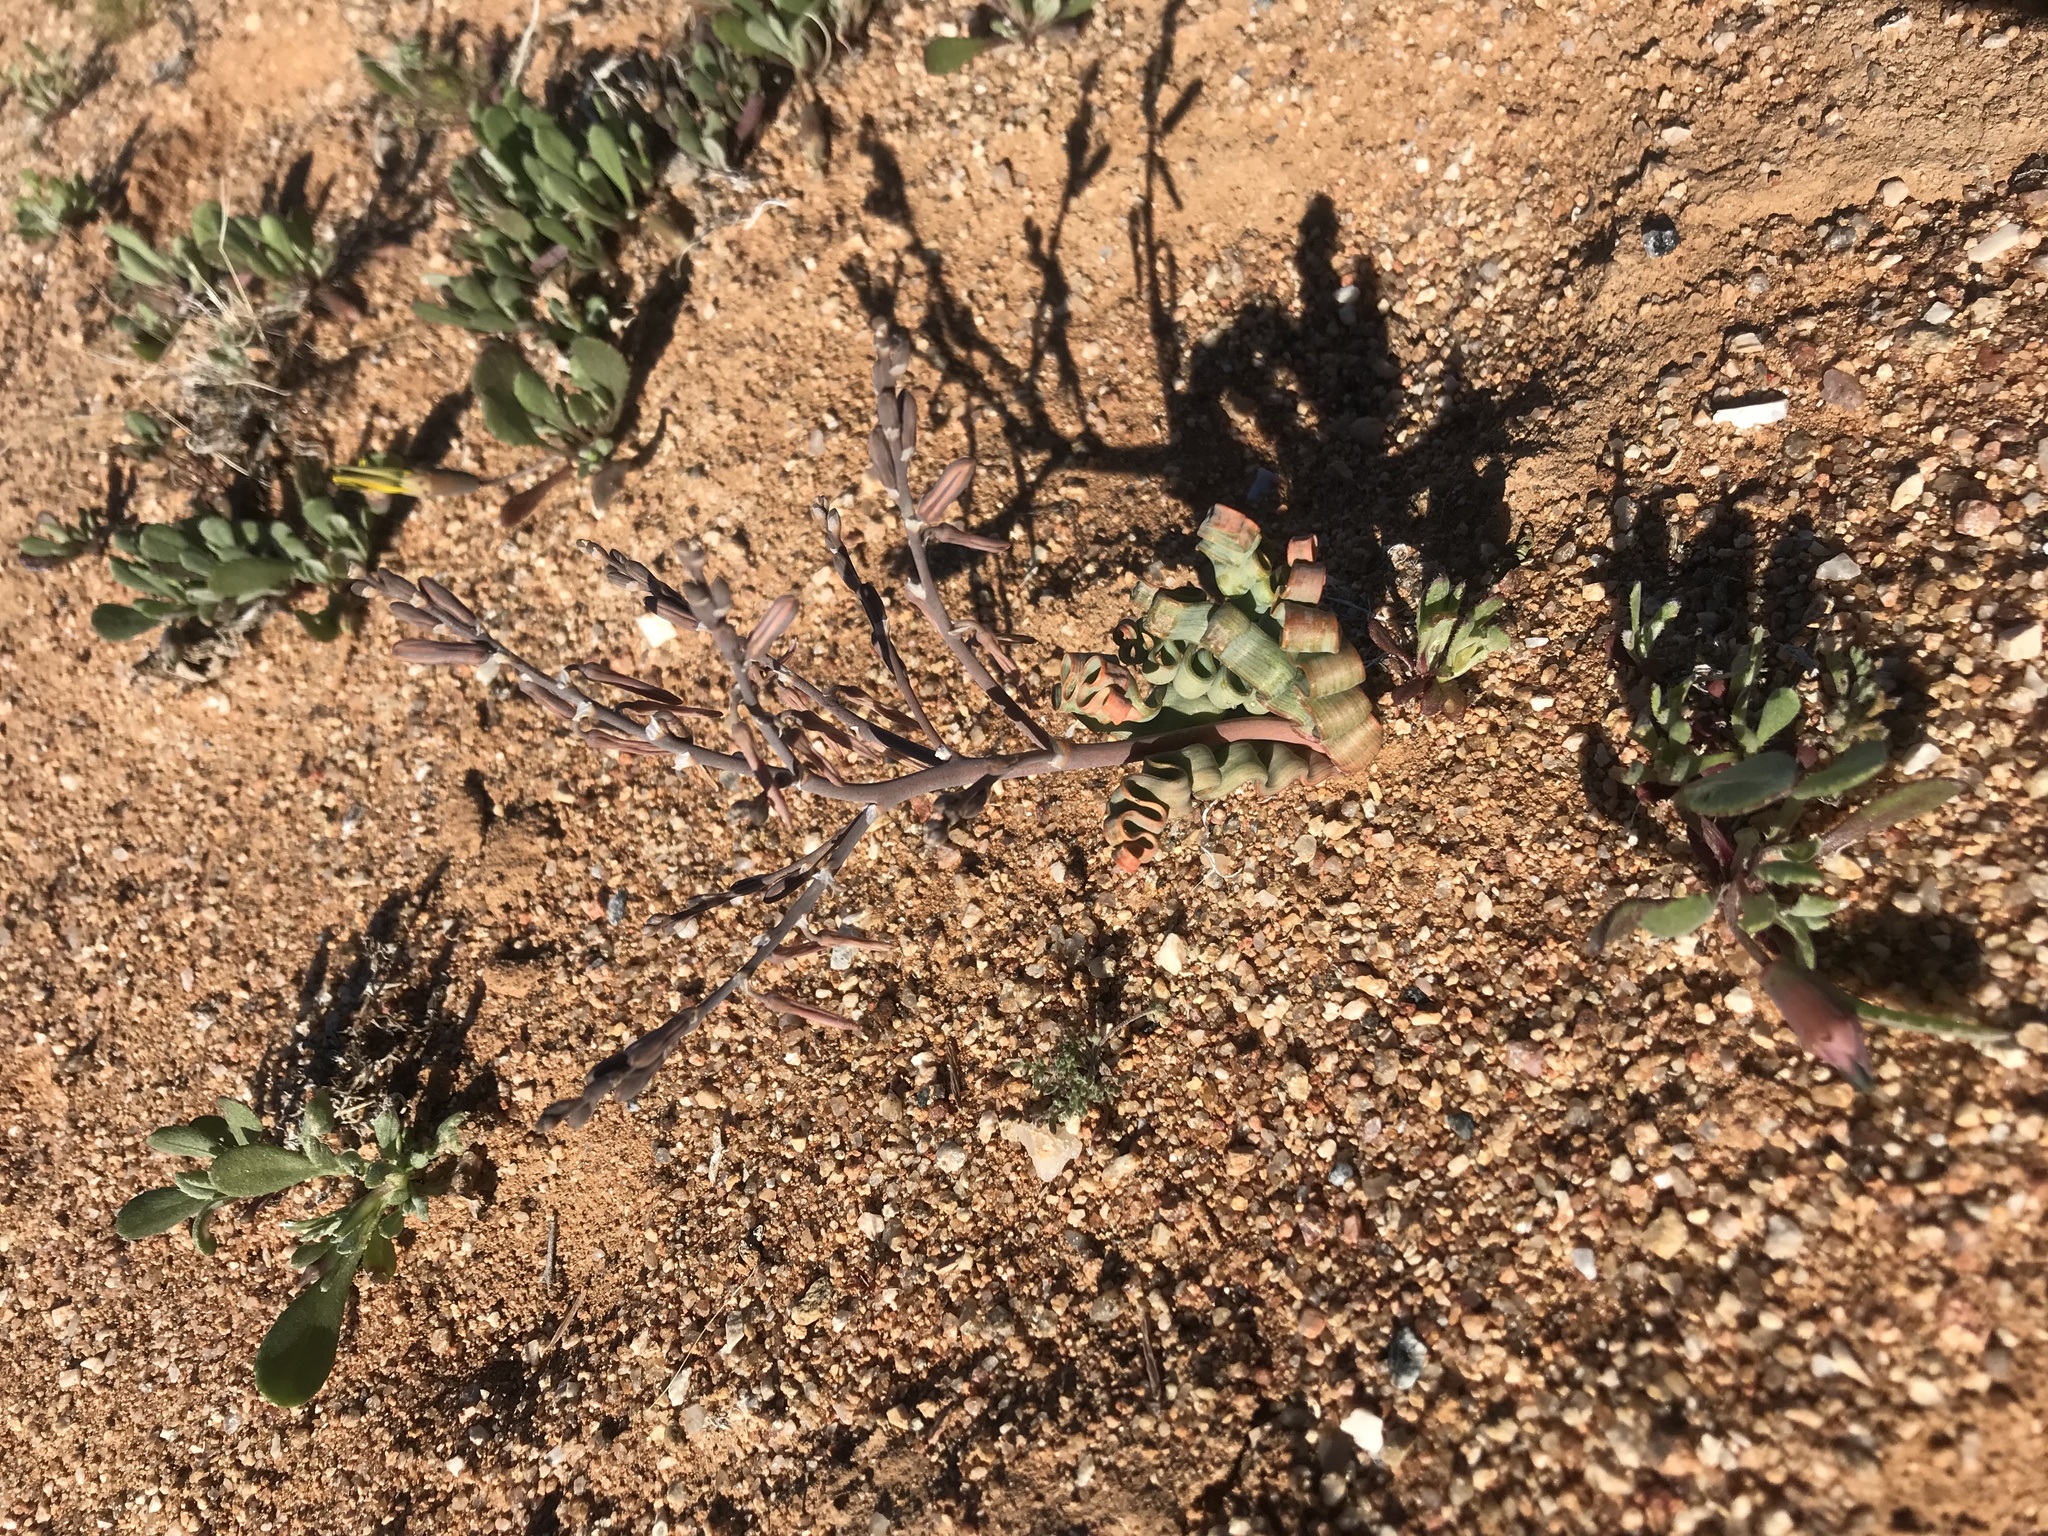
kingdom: Plantae
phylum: Tracheophyta
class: Liliopsida
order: Asparagales
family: Asphodelaceae
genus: Trachyandra
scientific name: Trachyandra tortilis
